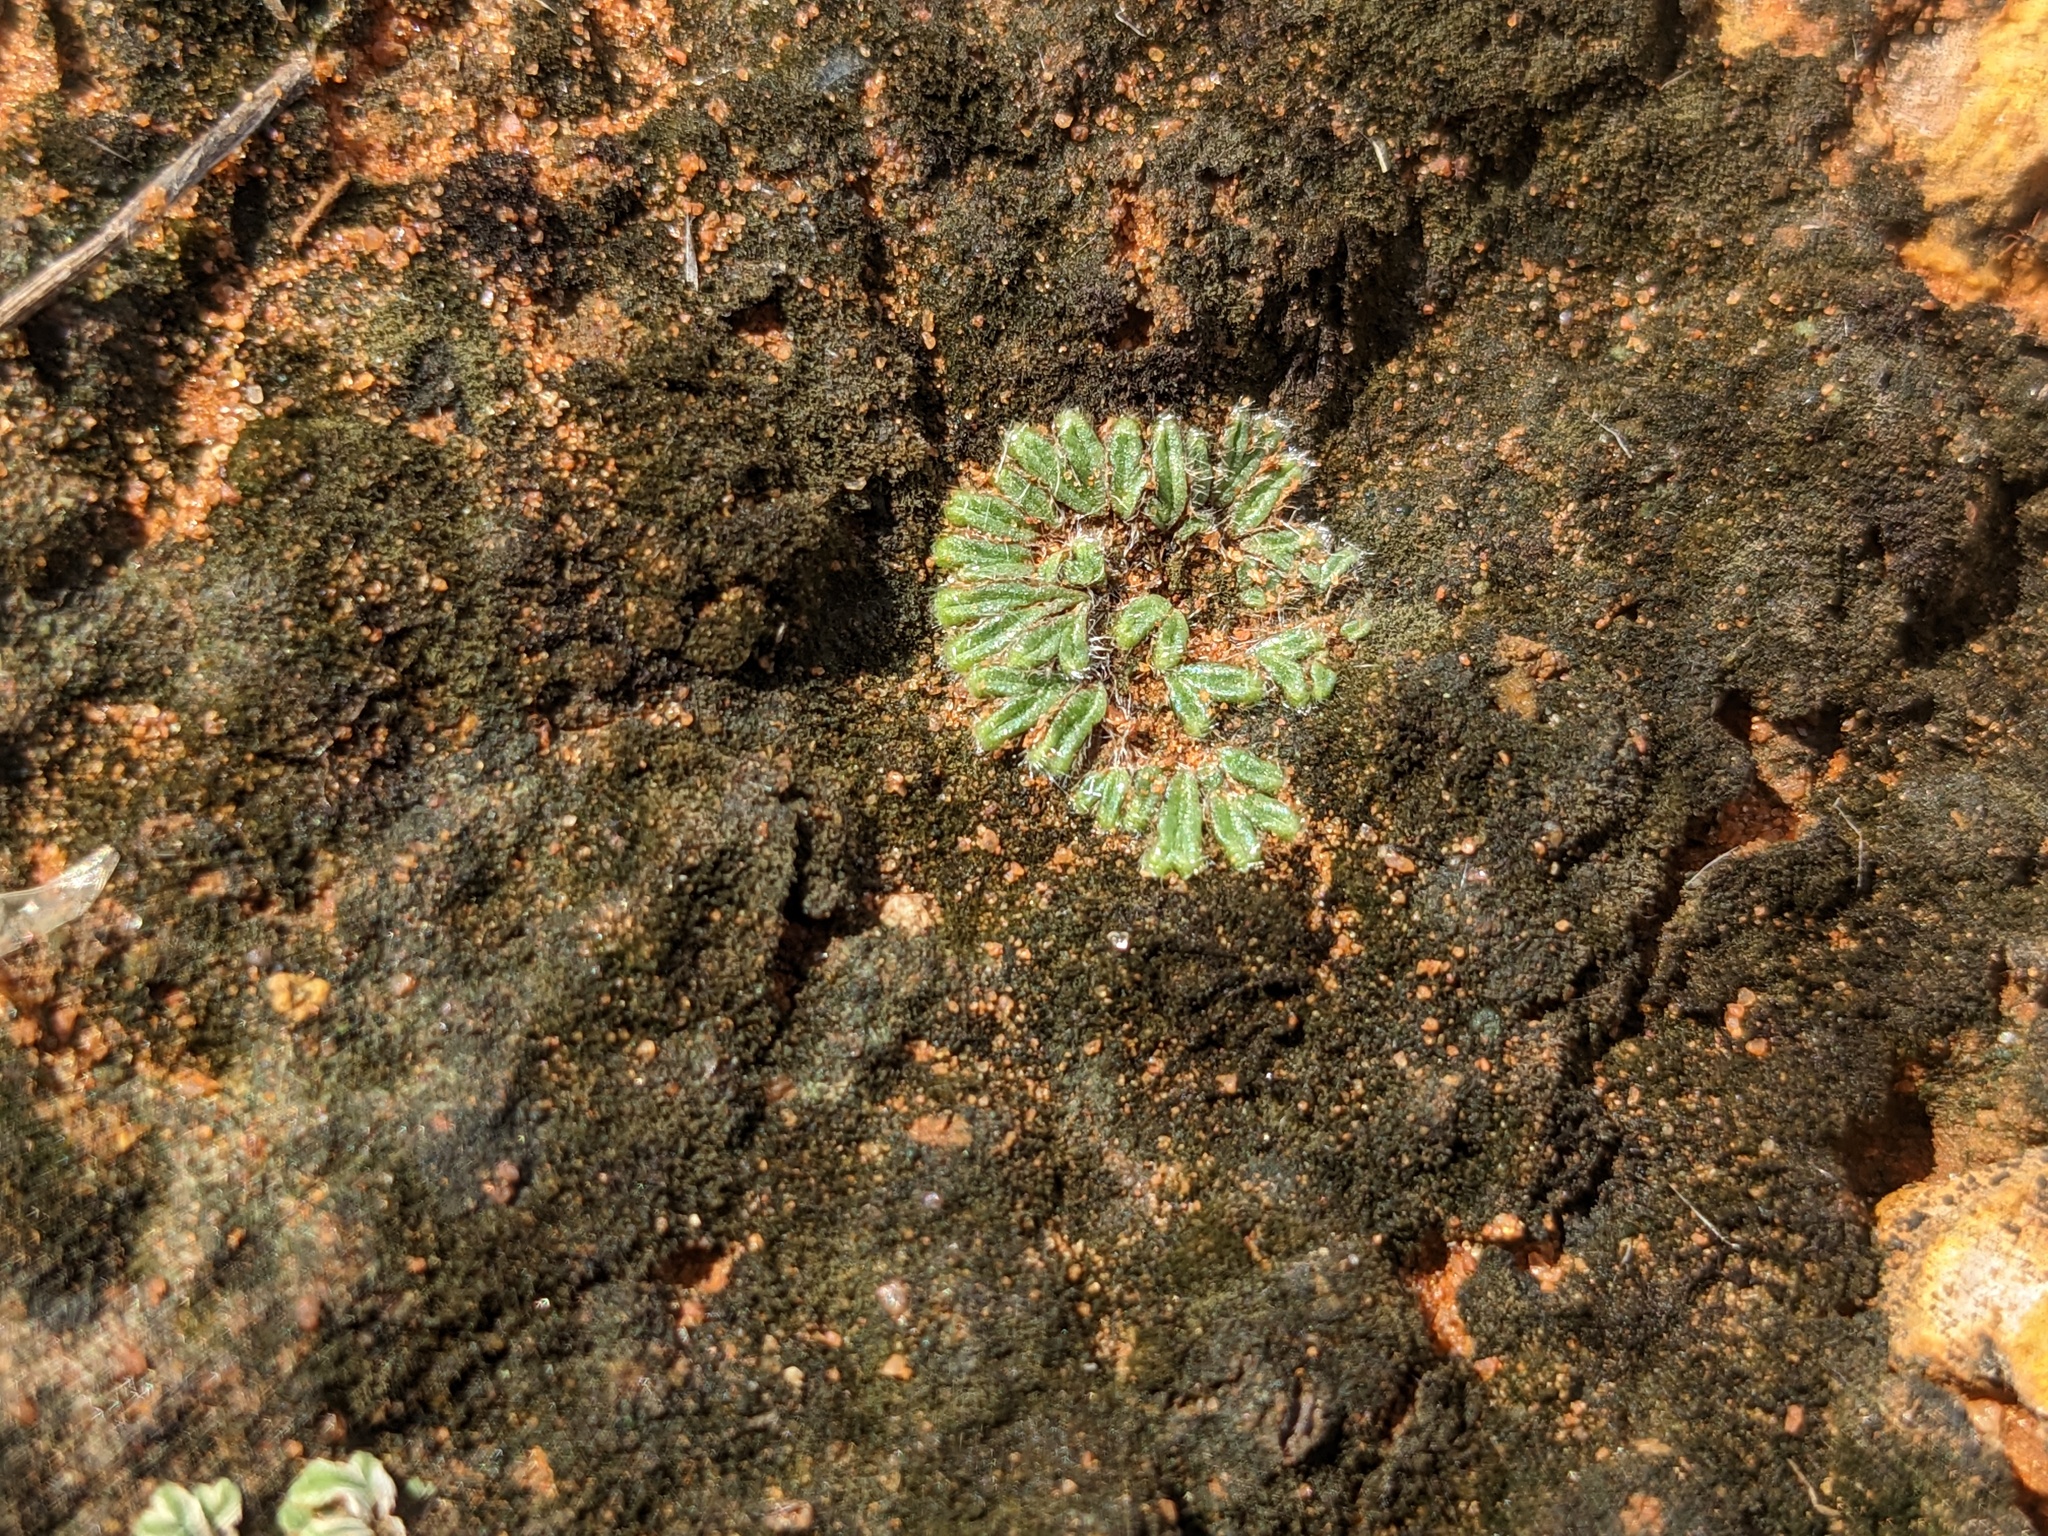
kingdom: Plantae
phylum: Marchantiophyta
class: Marchantiopsida
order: Marchantiales
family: Ricciaceae
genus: Riccia
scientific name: Riccia crinita
